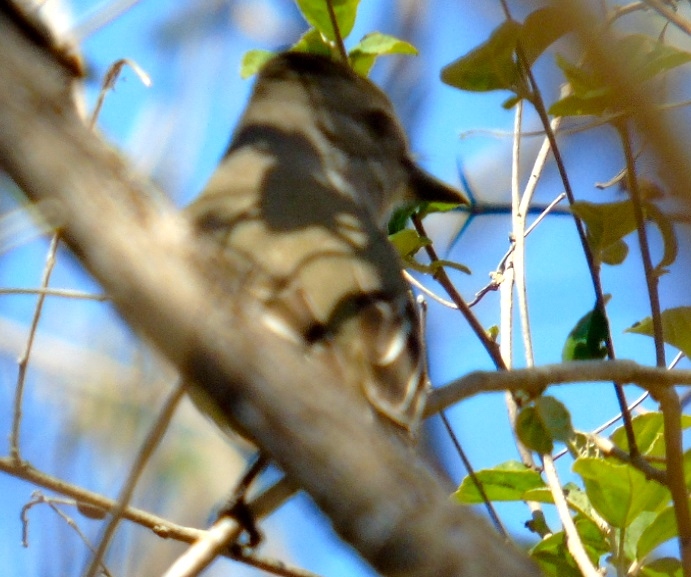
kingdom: Animalia
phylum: Chordata
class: Aves
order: Passeriformes
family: Tyrannidae
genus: Myiarchus
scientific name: Myiarchus
